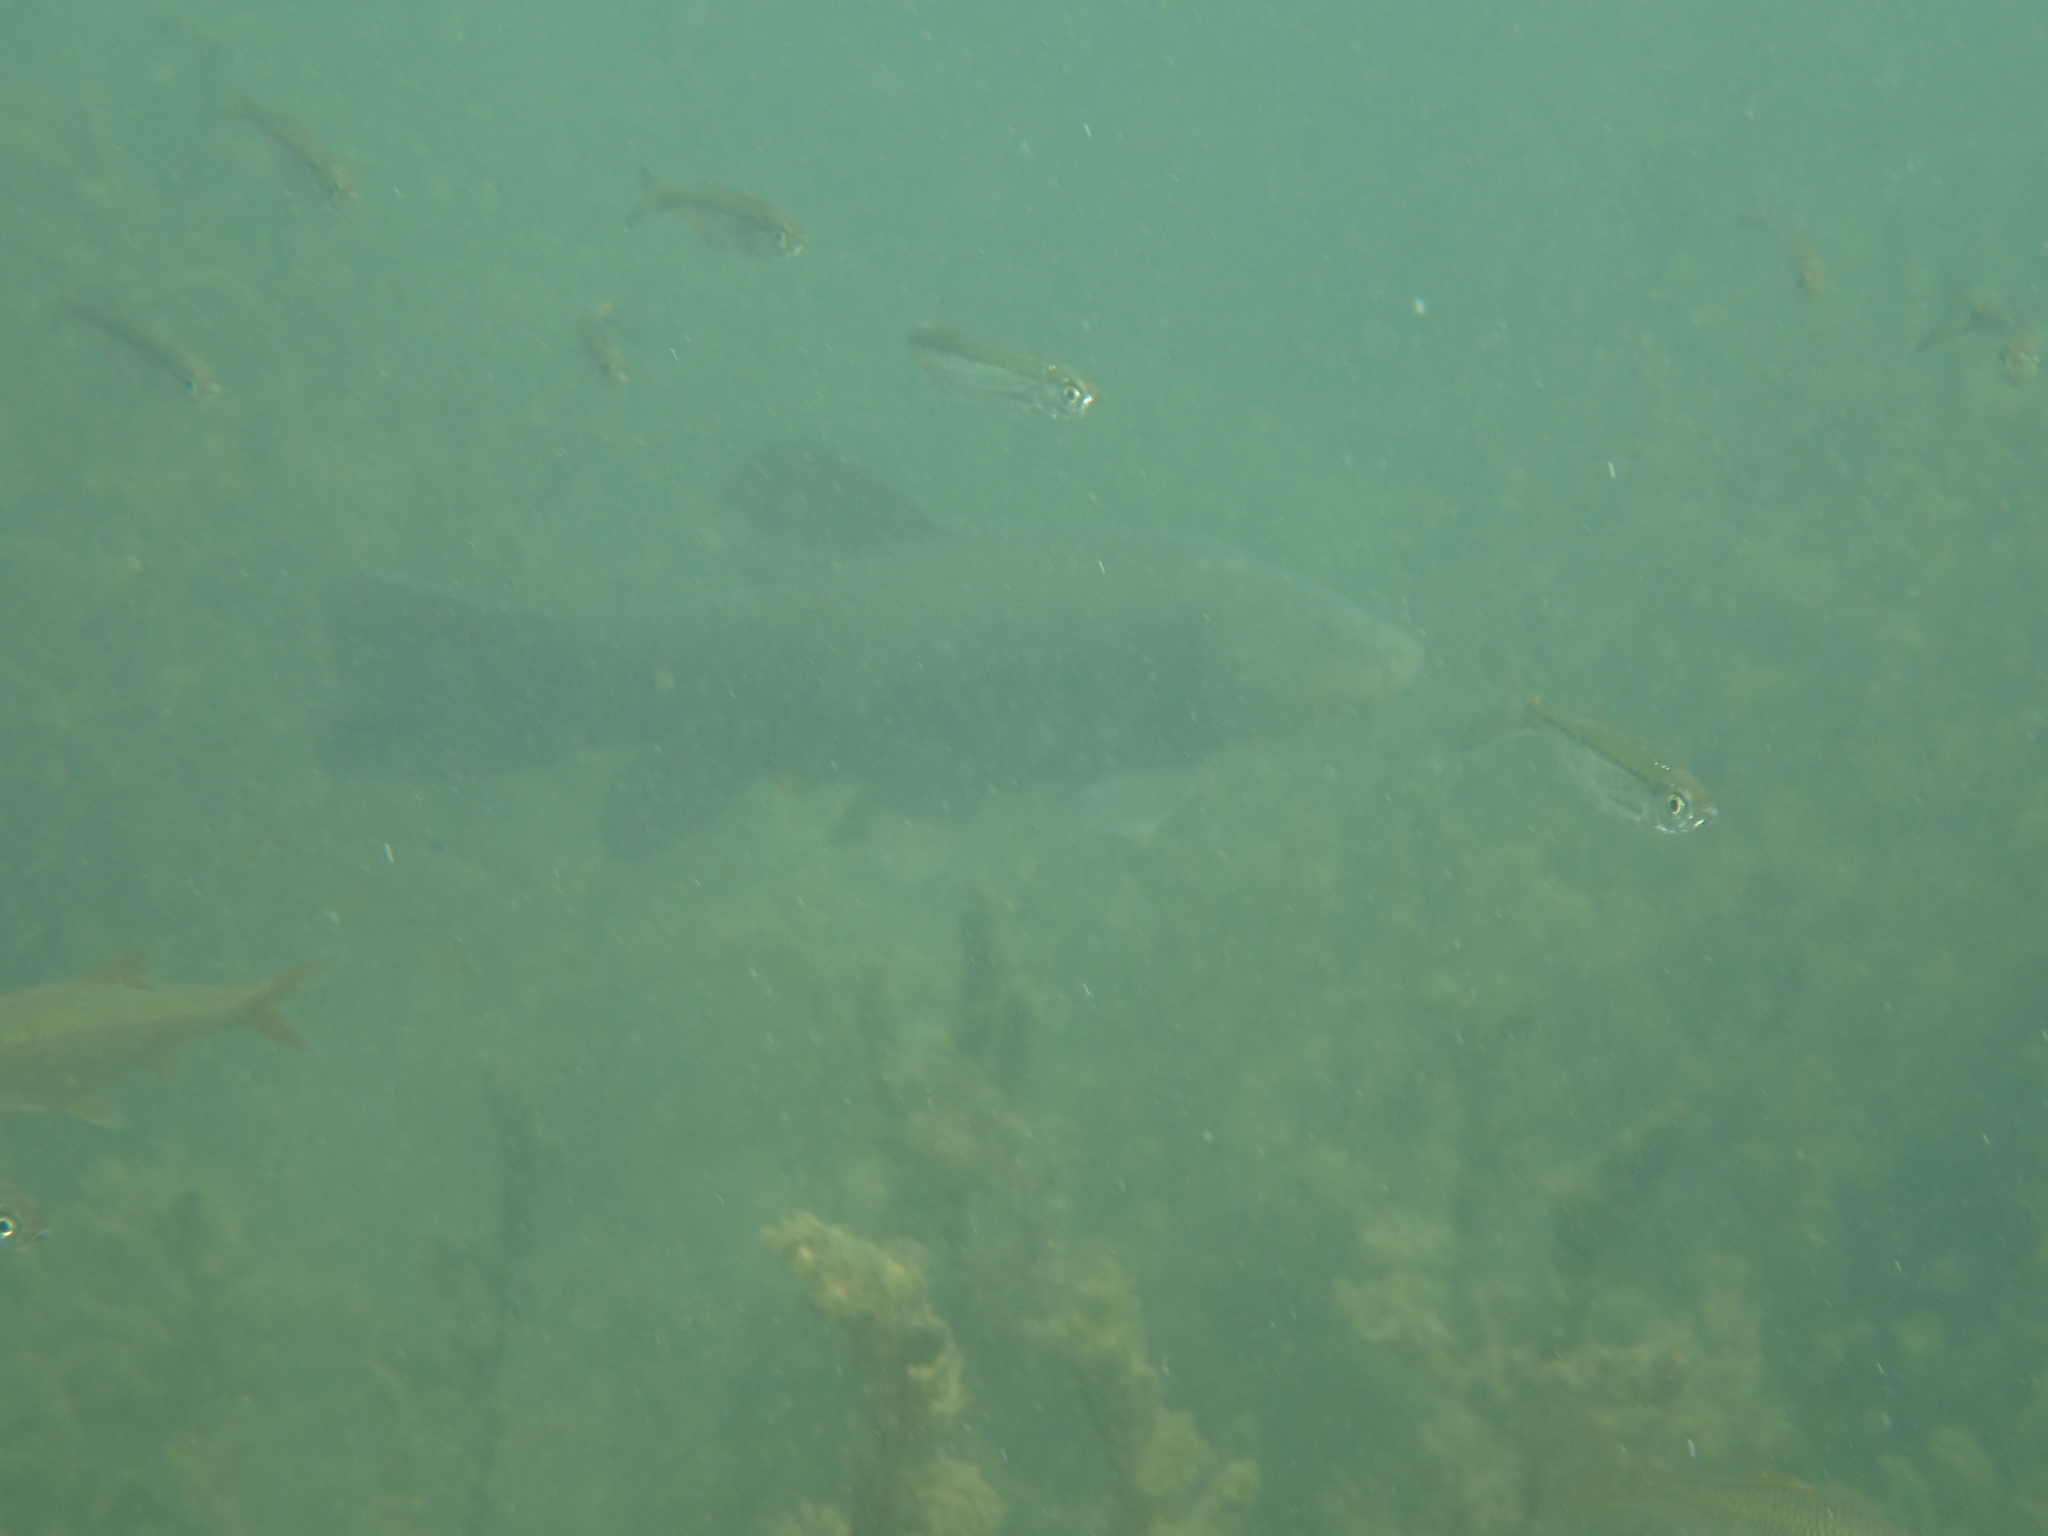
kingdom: Animalia
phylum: Chordata
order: Cypriniformes
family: Cyprinidae
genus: Tinca
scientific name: Tinca tinca
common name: Tench
